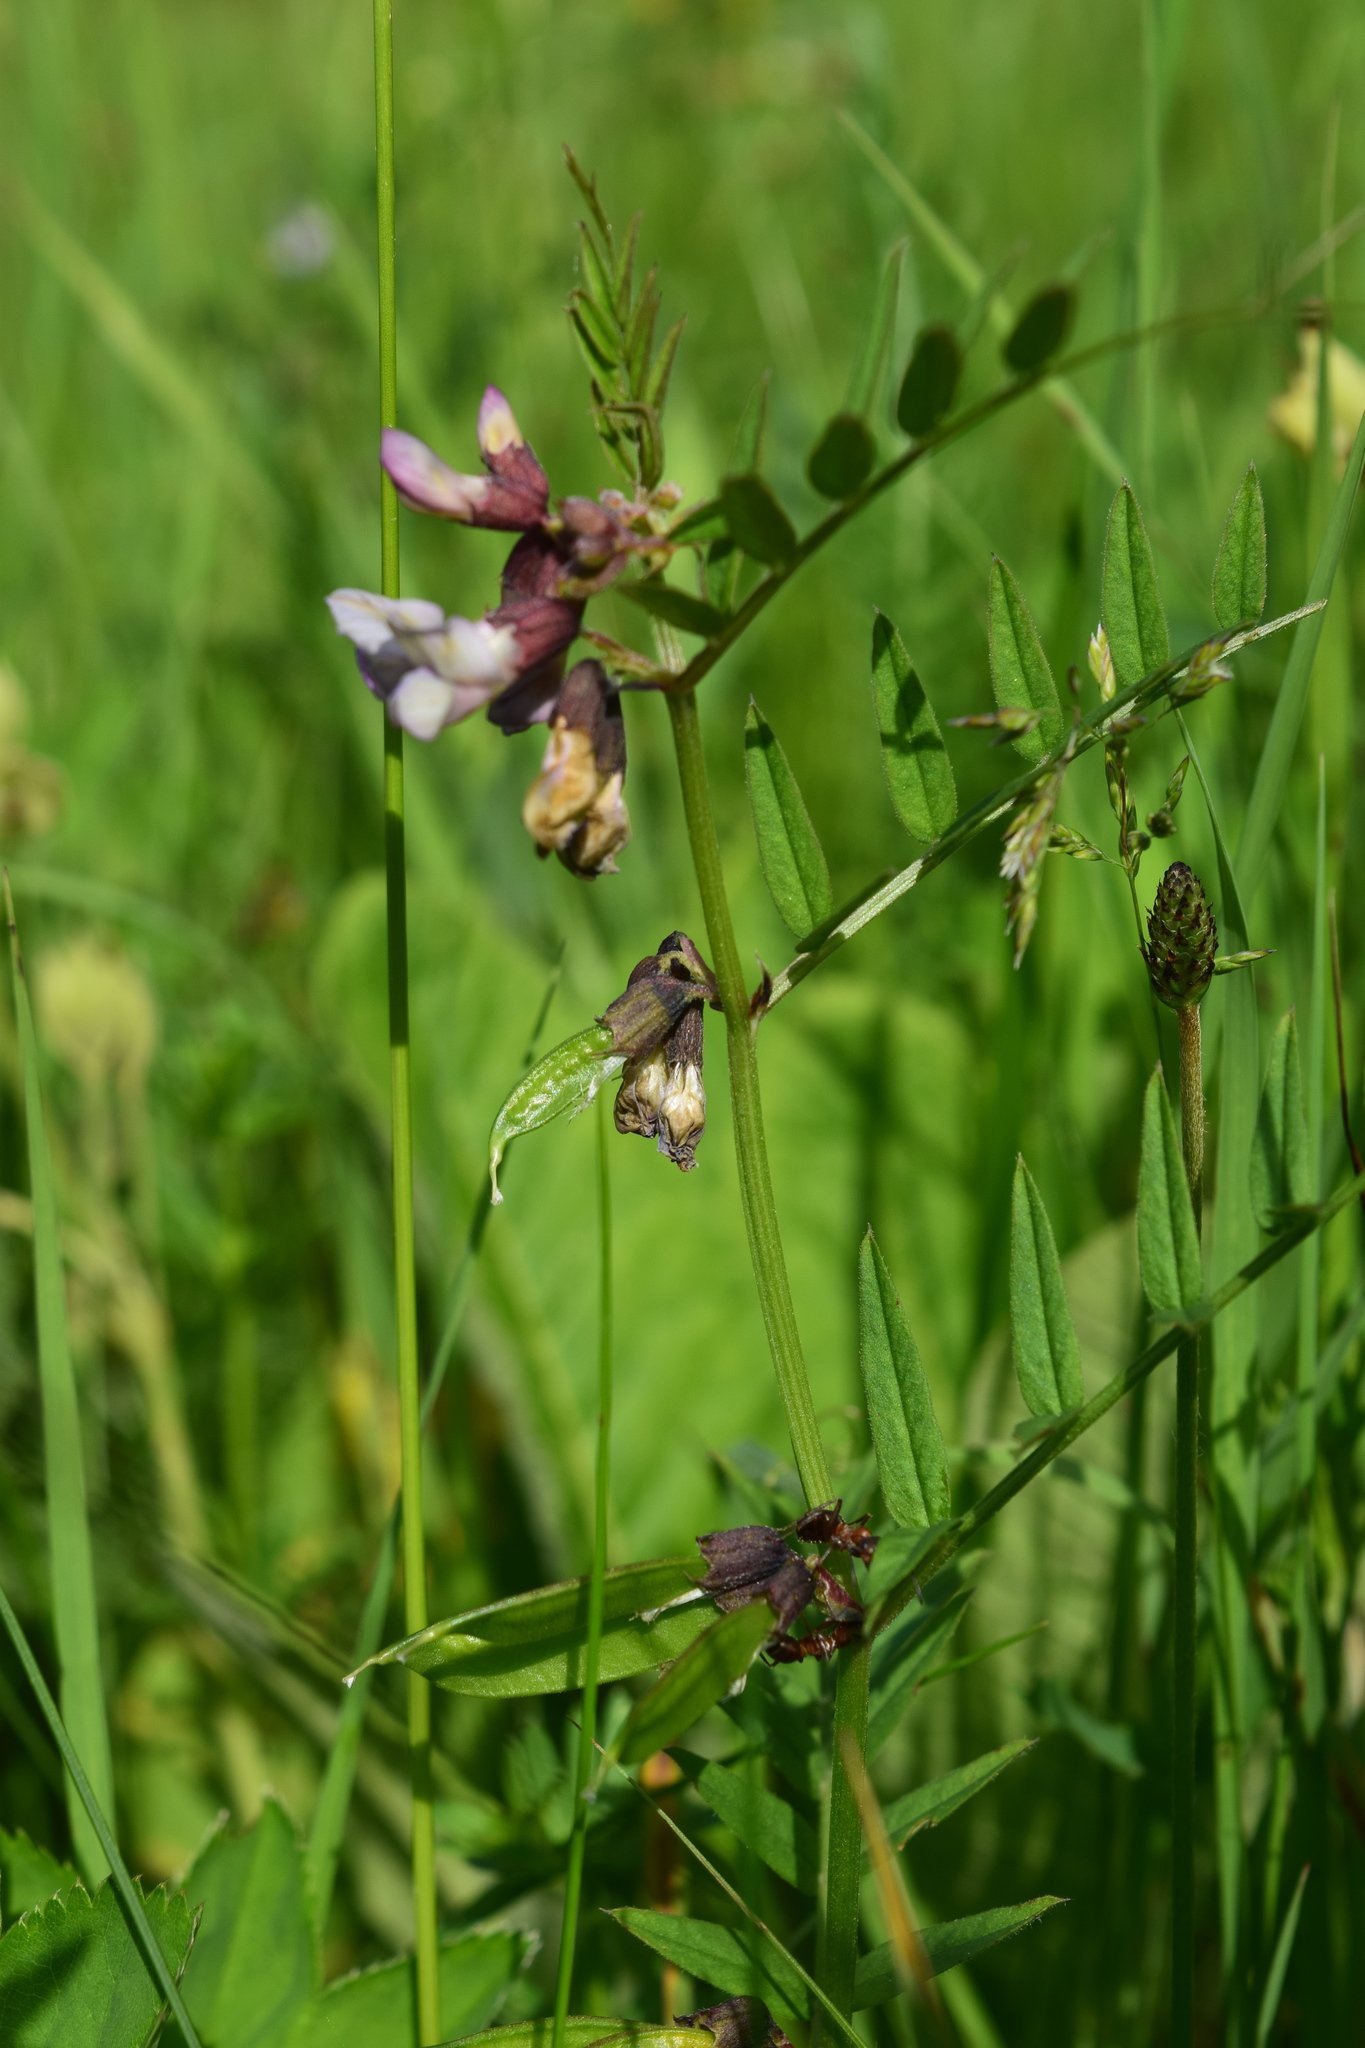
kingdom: Plantae
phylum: Tracheophyta
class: Magnoliopsida
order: Fabales
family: Fabaceae
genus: Vicia
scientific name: Vicia sepium
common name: Bush vetch
